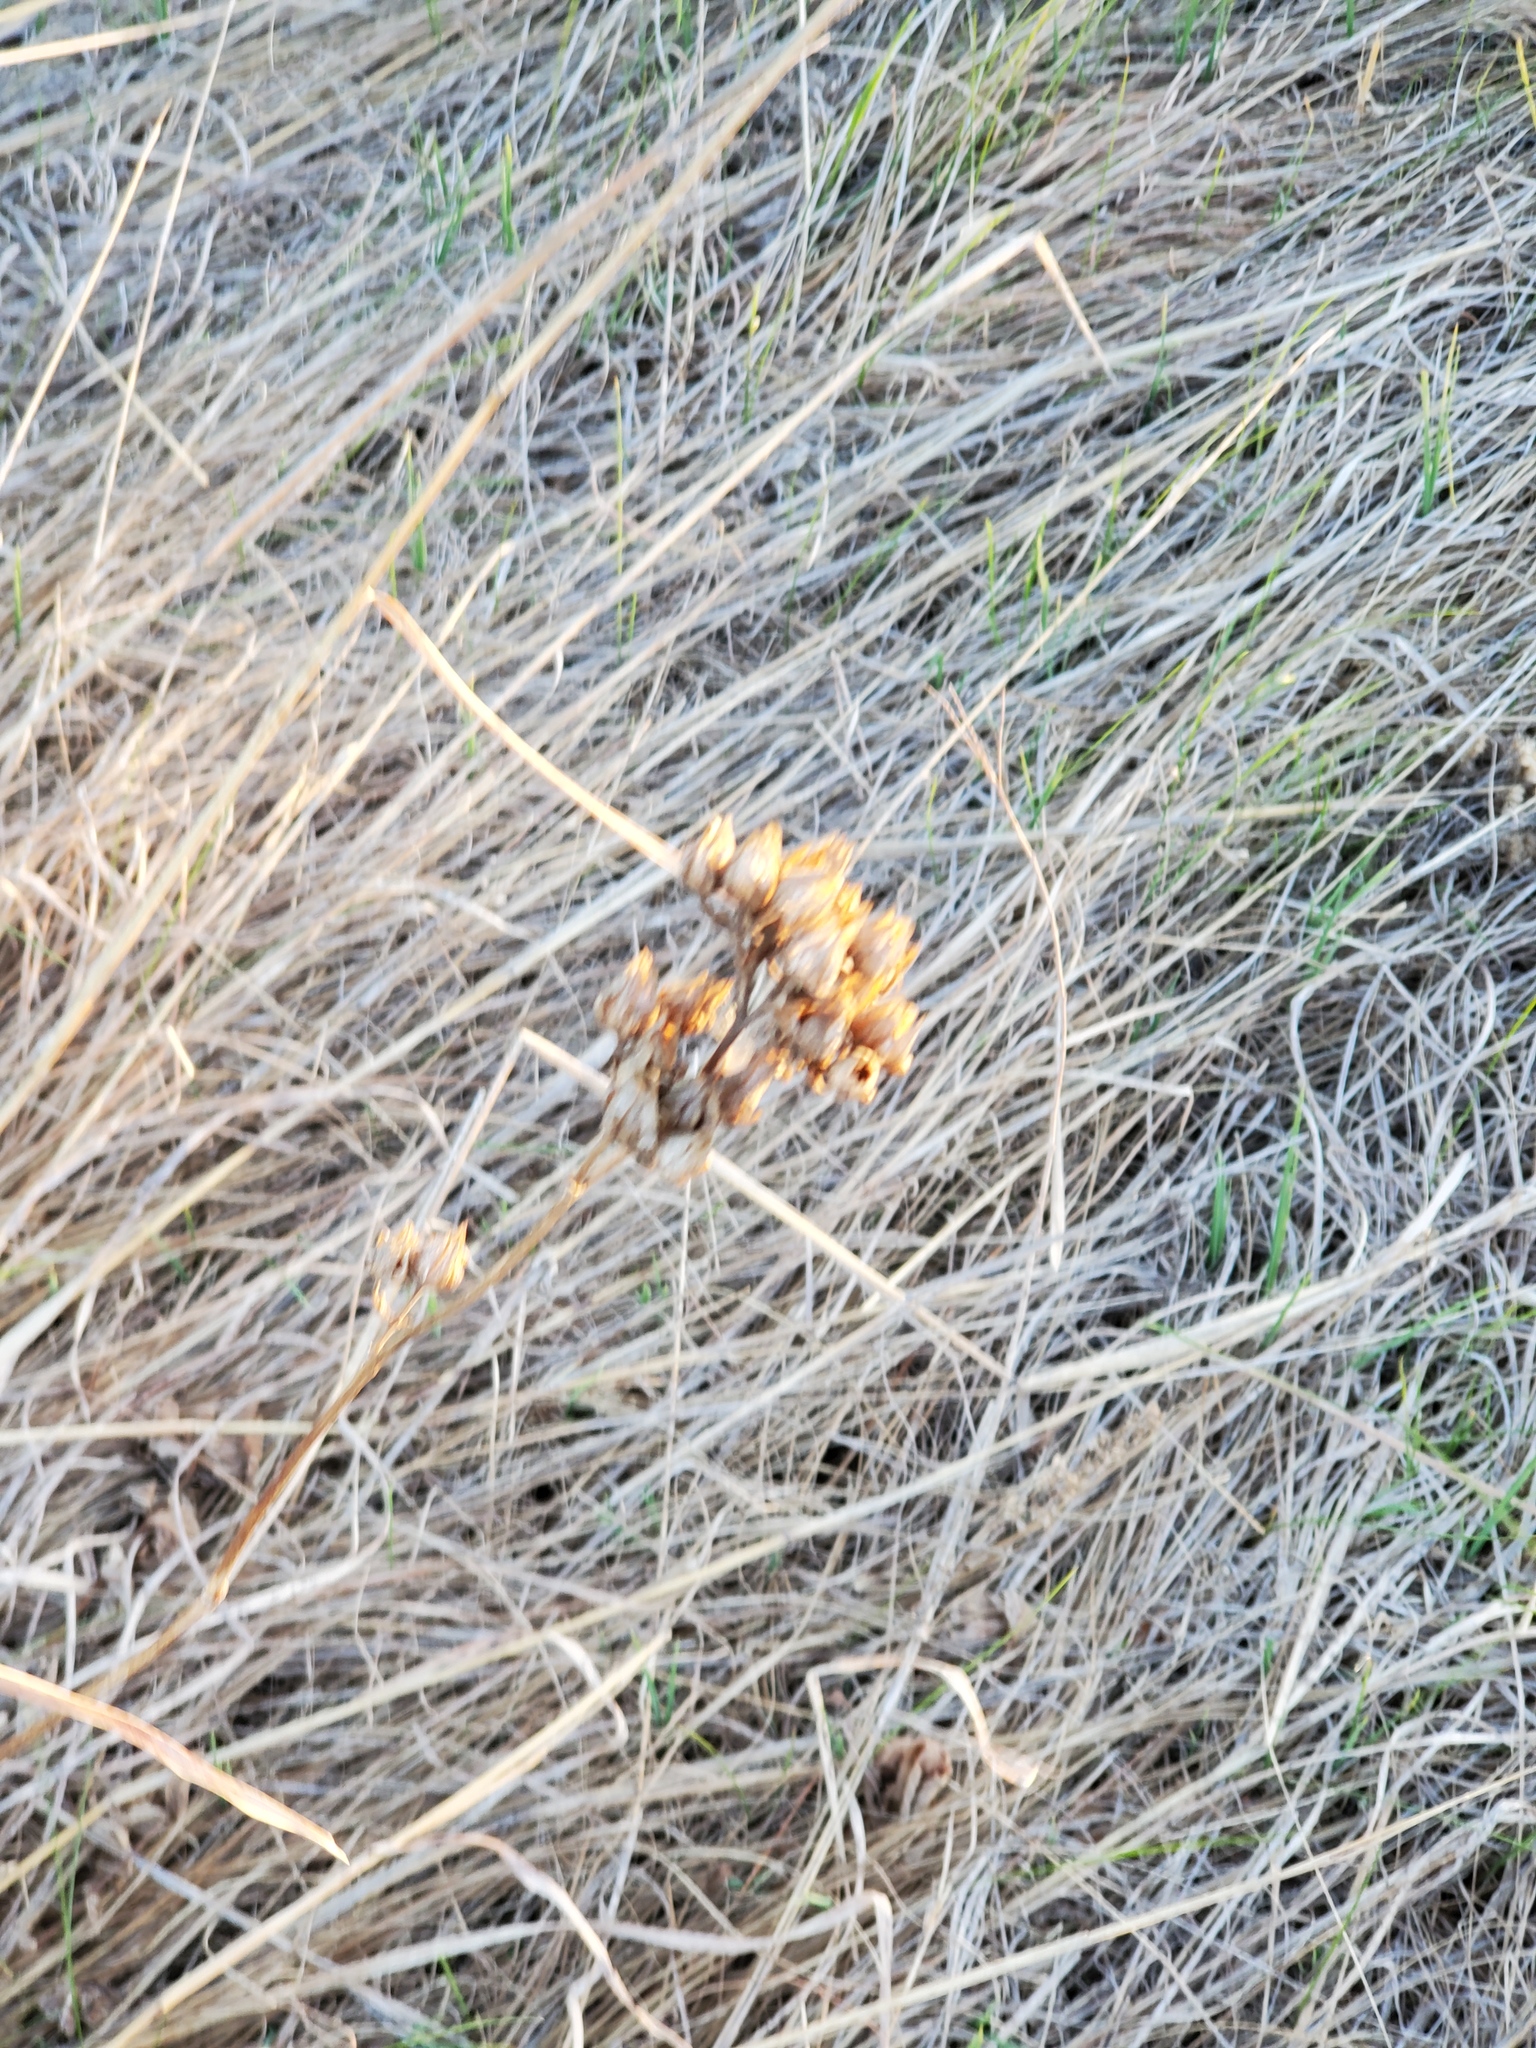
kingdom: Plantae
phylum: Tracheophyta
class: Magnoliopsida
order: Rosales
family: Rosaceae
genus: Drymocallis
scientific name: Drymocallis arguta
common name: Tall cinquefoil
